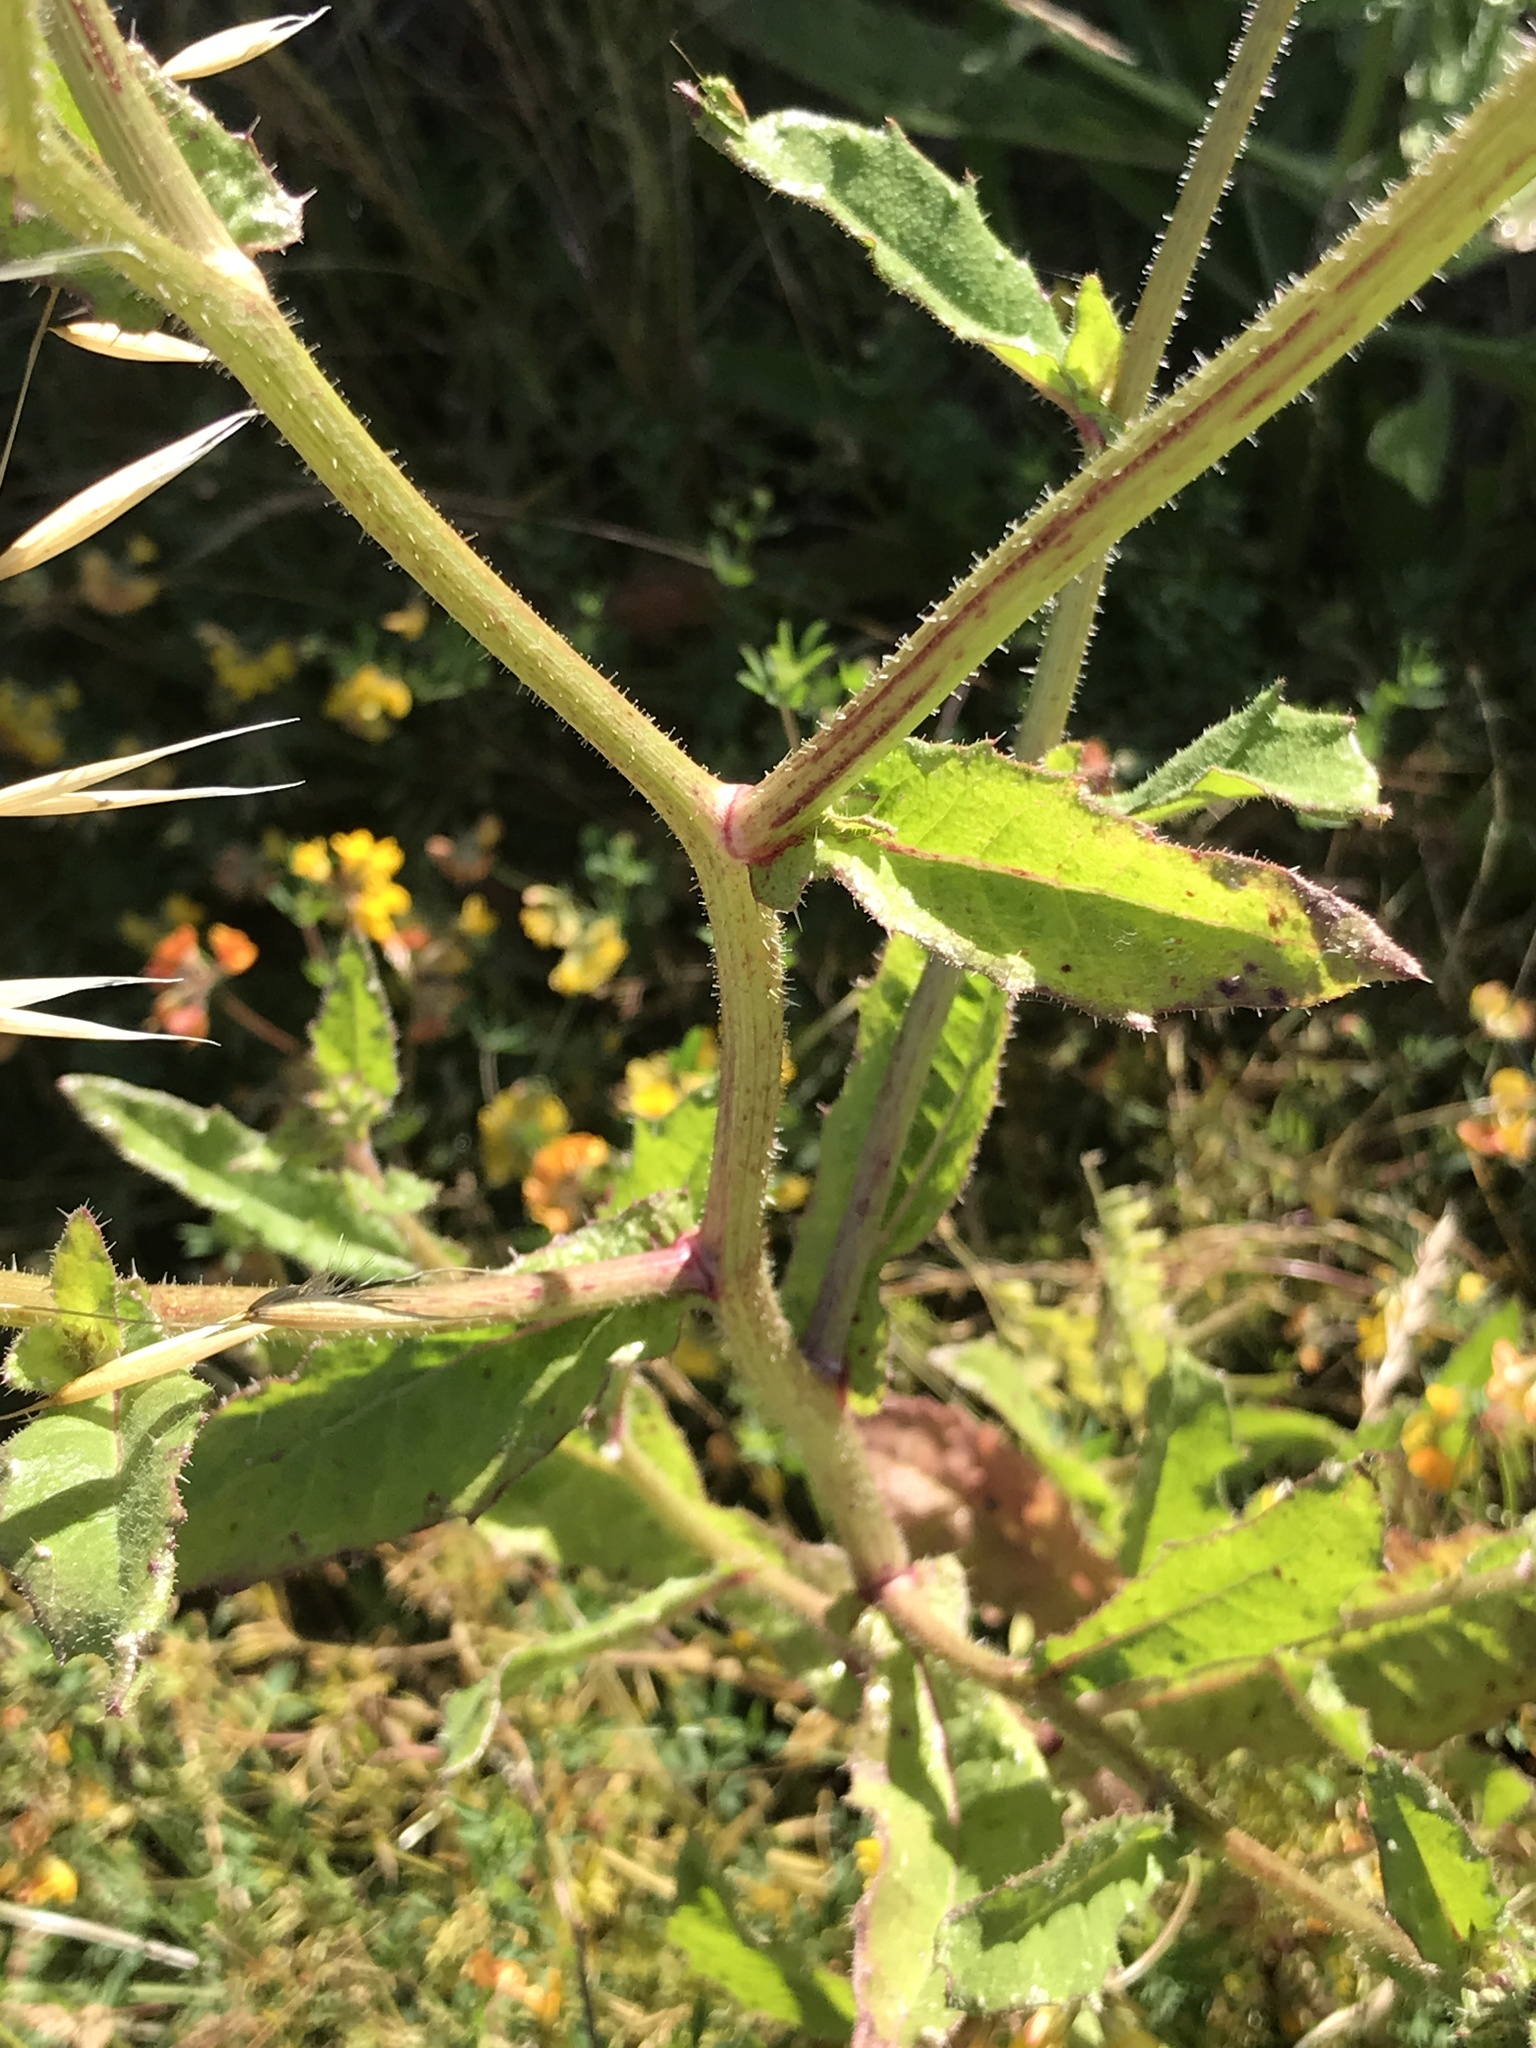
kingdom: Plantae
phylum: Tracheophyta
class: Magnoliopsida
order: Asterales
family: Asteraceae
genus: Helminthotheca
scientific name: Helminthotheca echioides
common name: Ox-tongue
